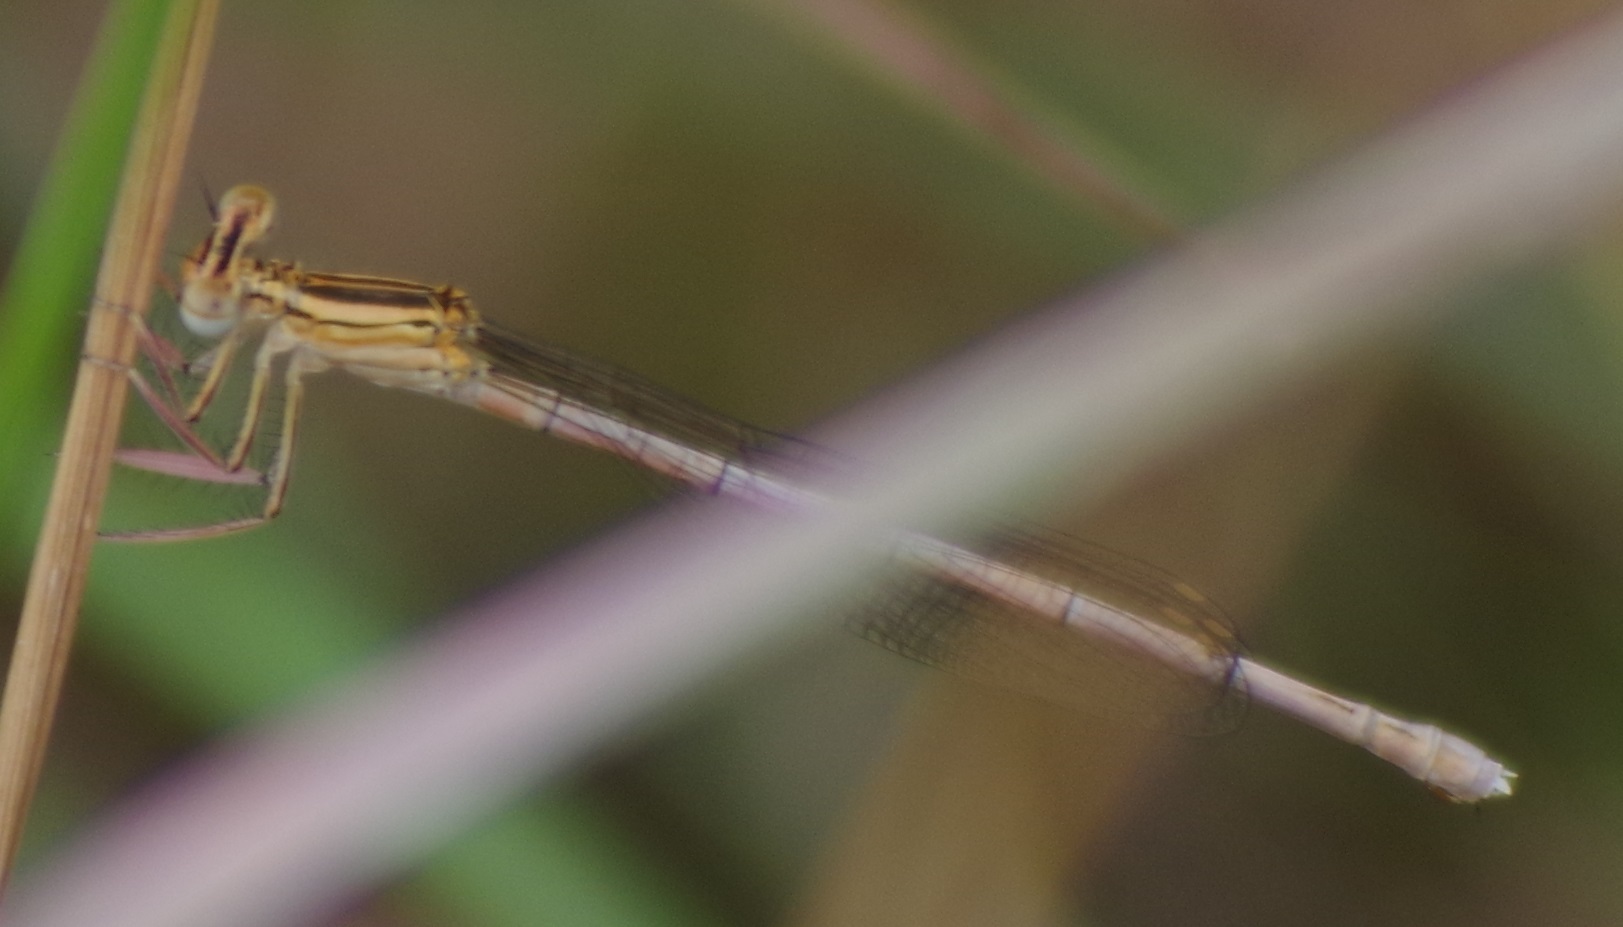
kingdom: Animalia
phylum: Arthropoda
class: Insecta
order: Odonata
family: Platycnemididae
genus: Platycnemis
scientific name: Platycnemis pennipes
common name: White-legged damselfly
